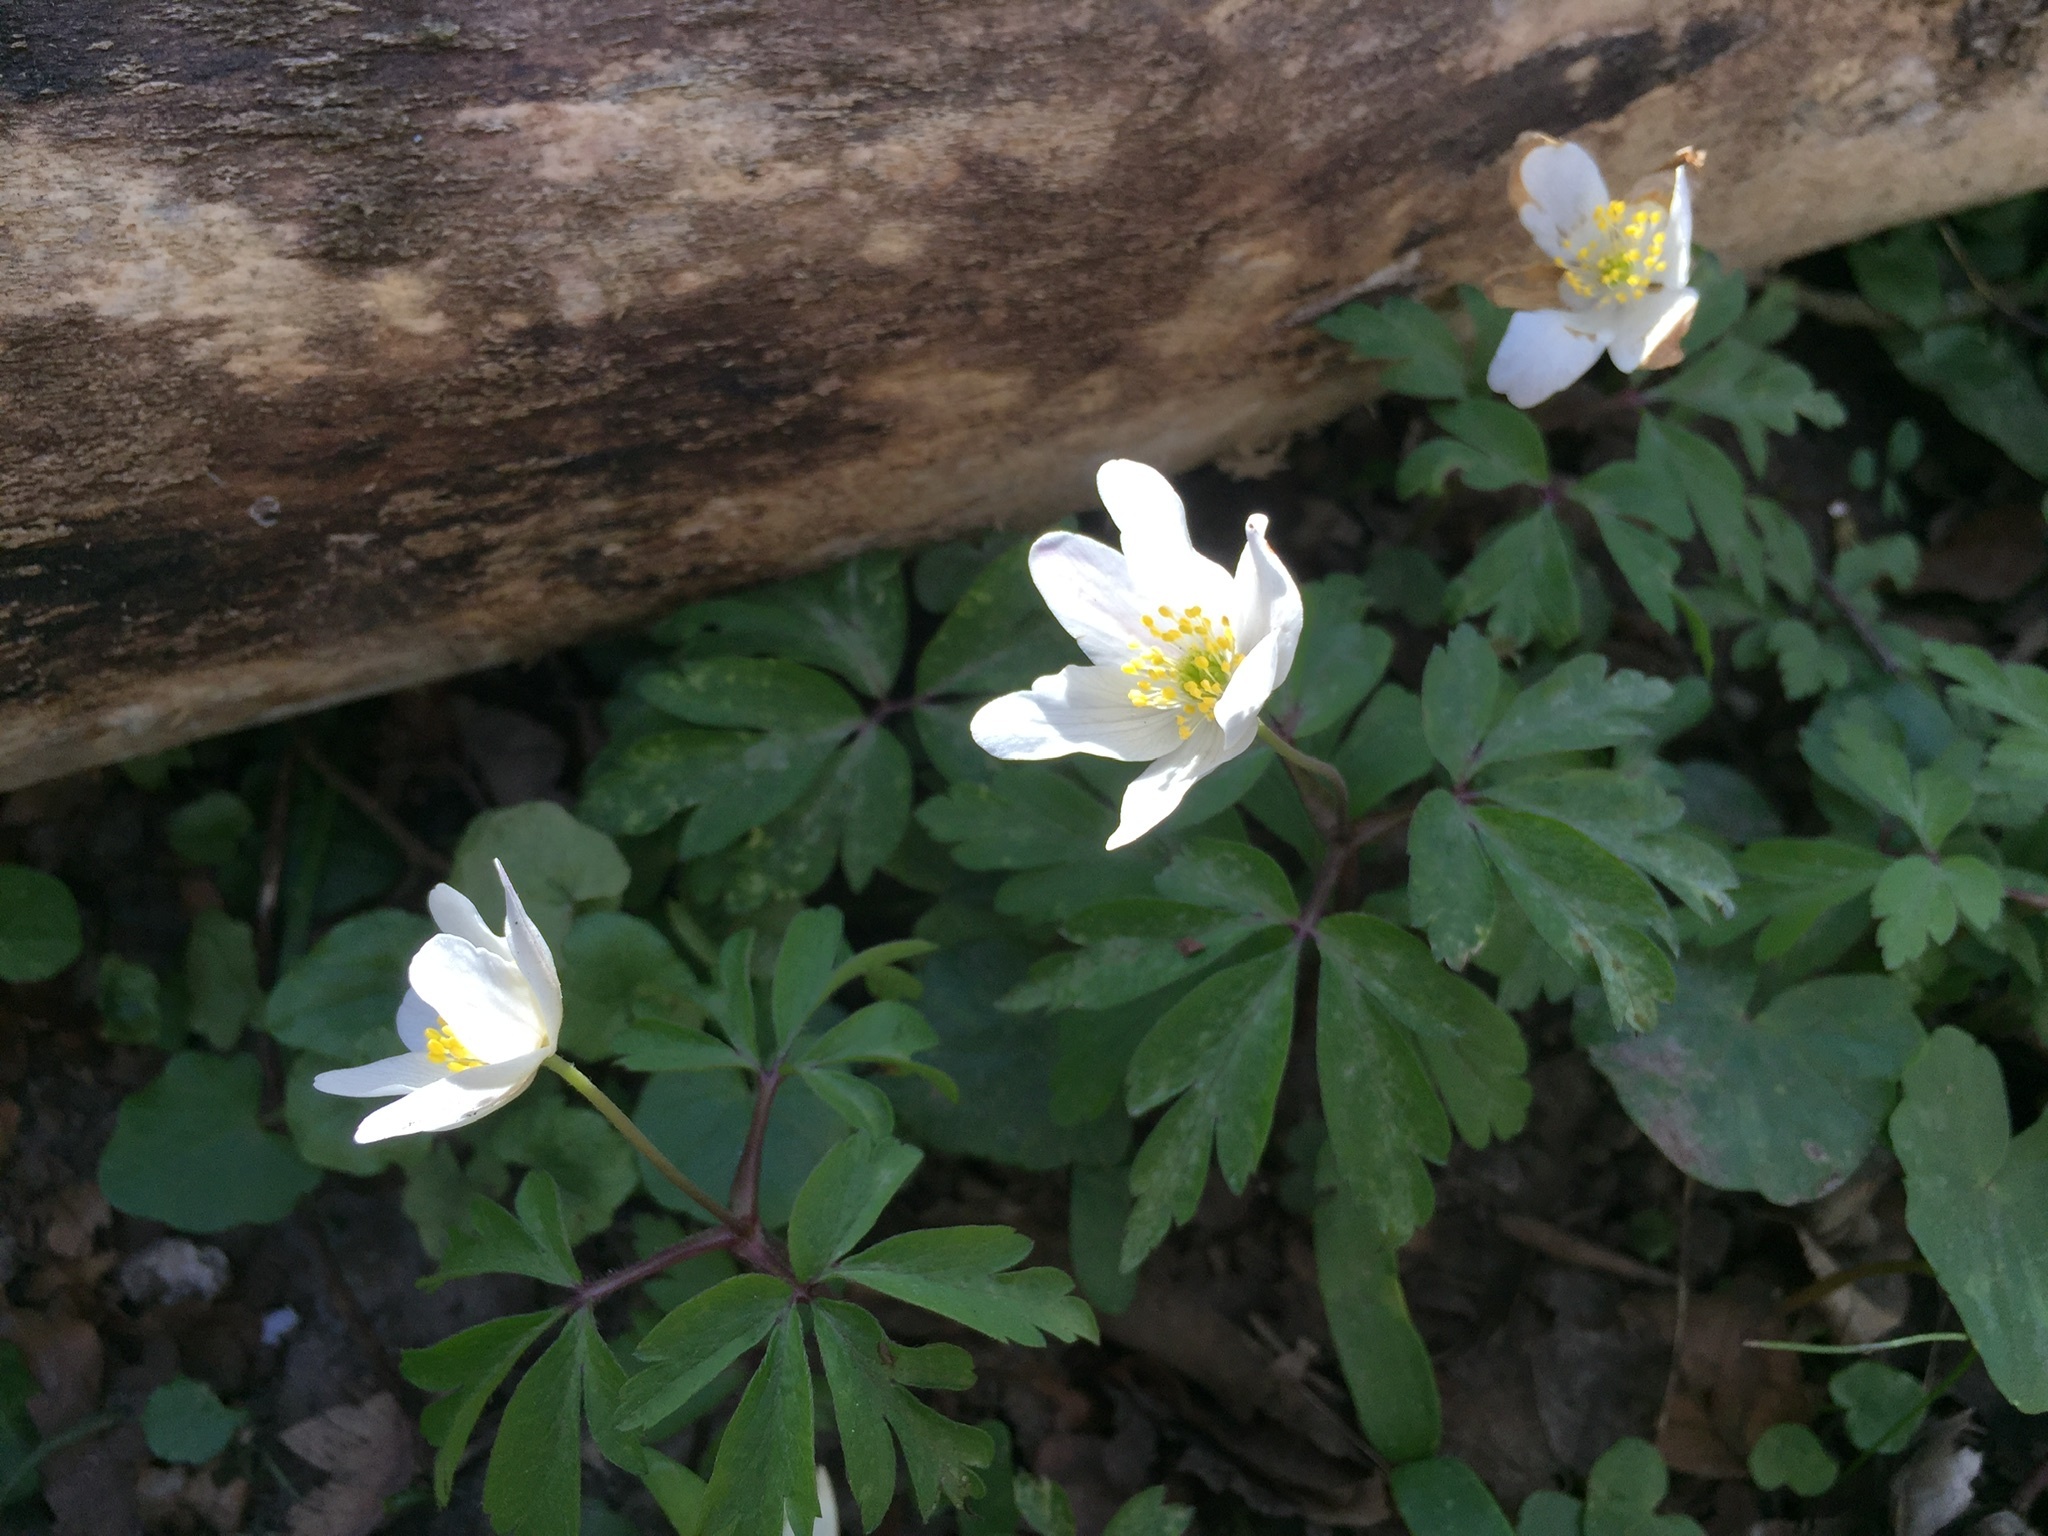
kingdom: Plantae
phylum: Tracheophyta
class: Magnoliopsida
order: Ranunculales
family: Ranunculaceae
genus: Anemone
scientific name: Anemone nemorosa
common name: Wood anemone
